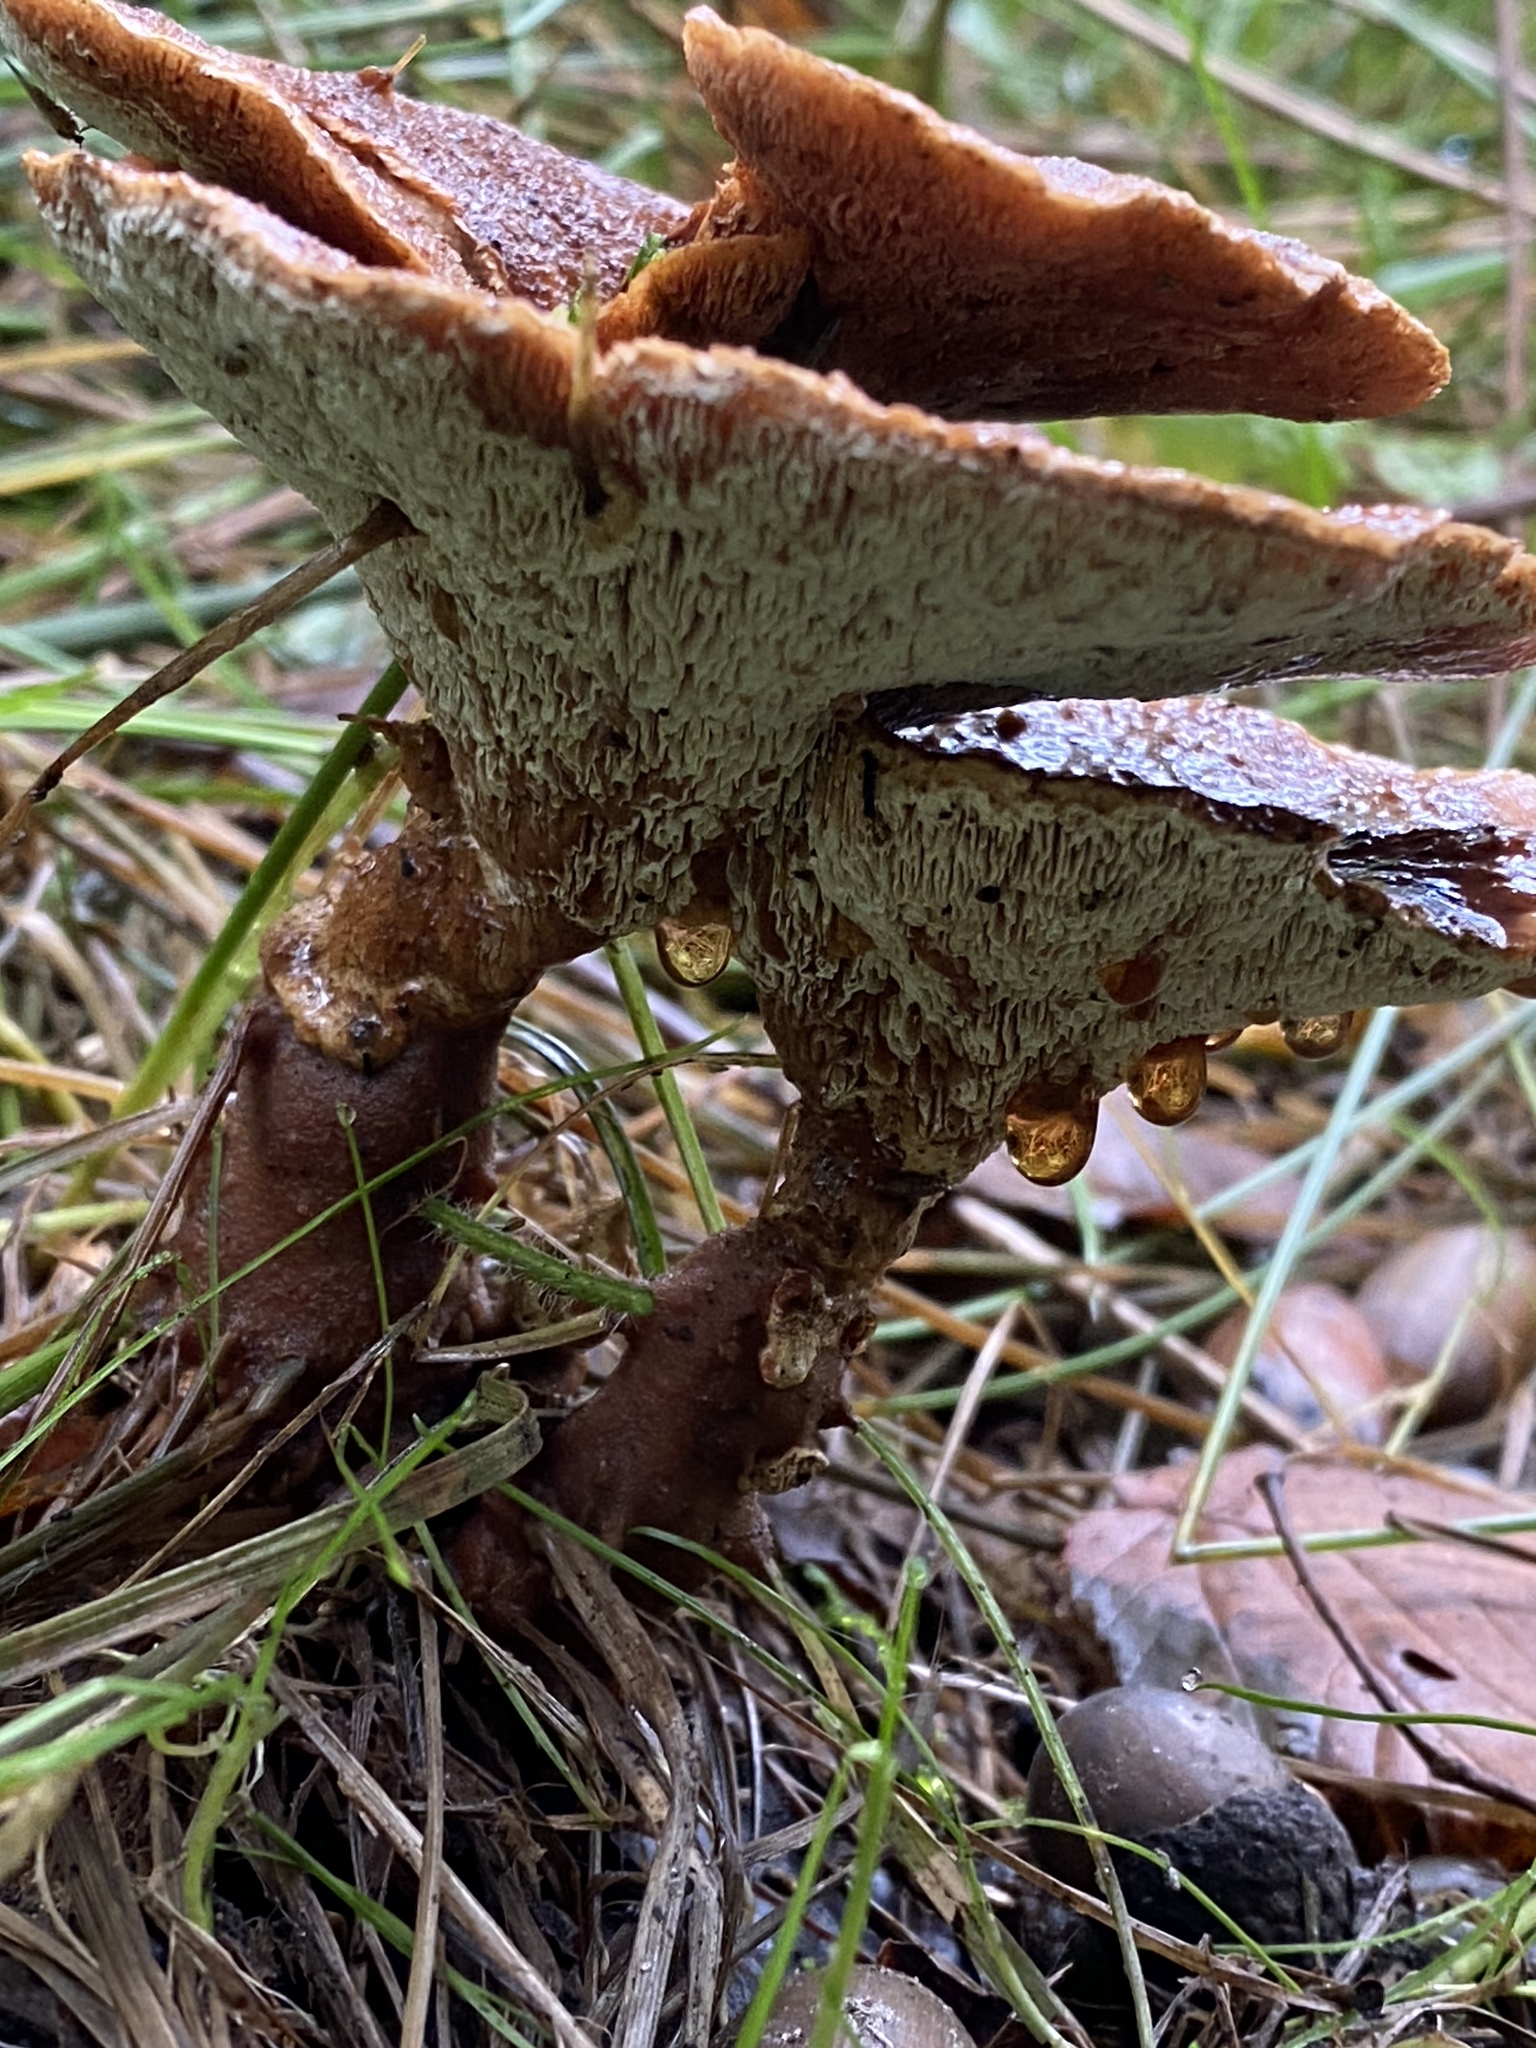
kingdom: Fungi
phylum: Basidiomycota
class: Agaricomycetes
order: Polyporales
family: Podoscyphaceae
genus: Abortiporus
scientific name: Abortiporus biennis
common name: Blushing rosette
